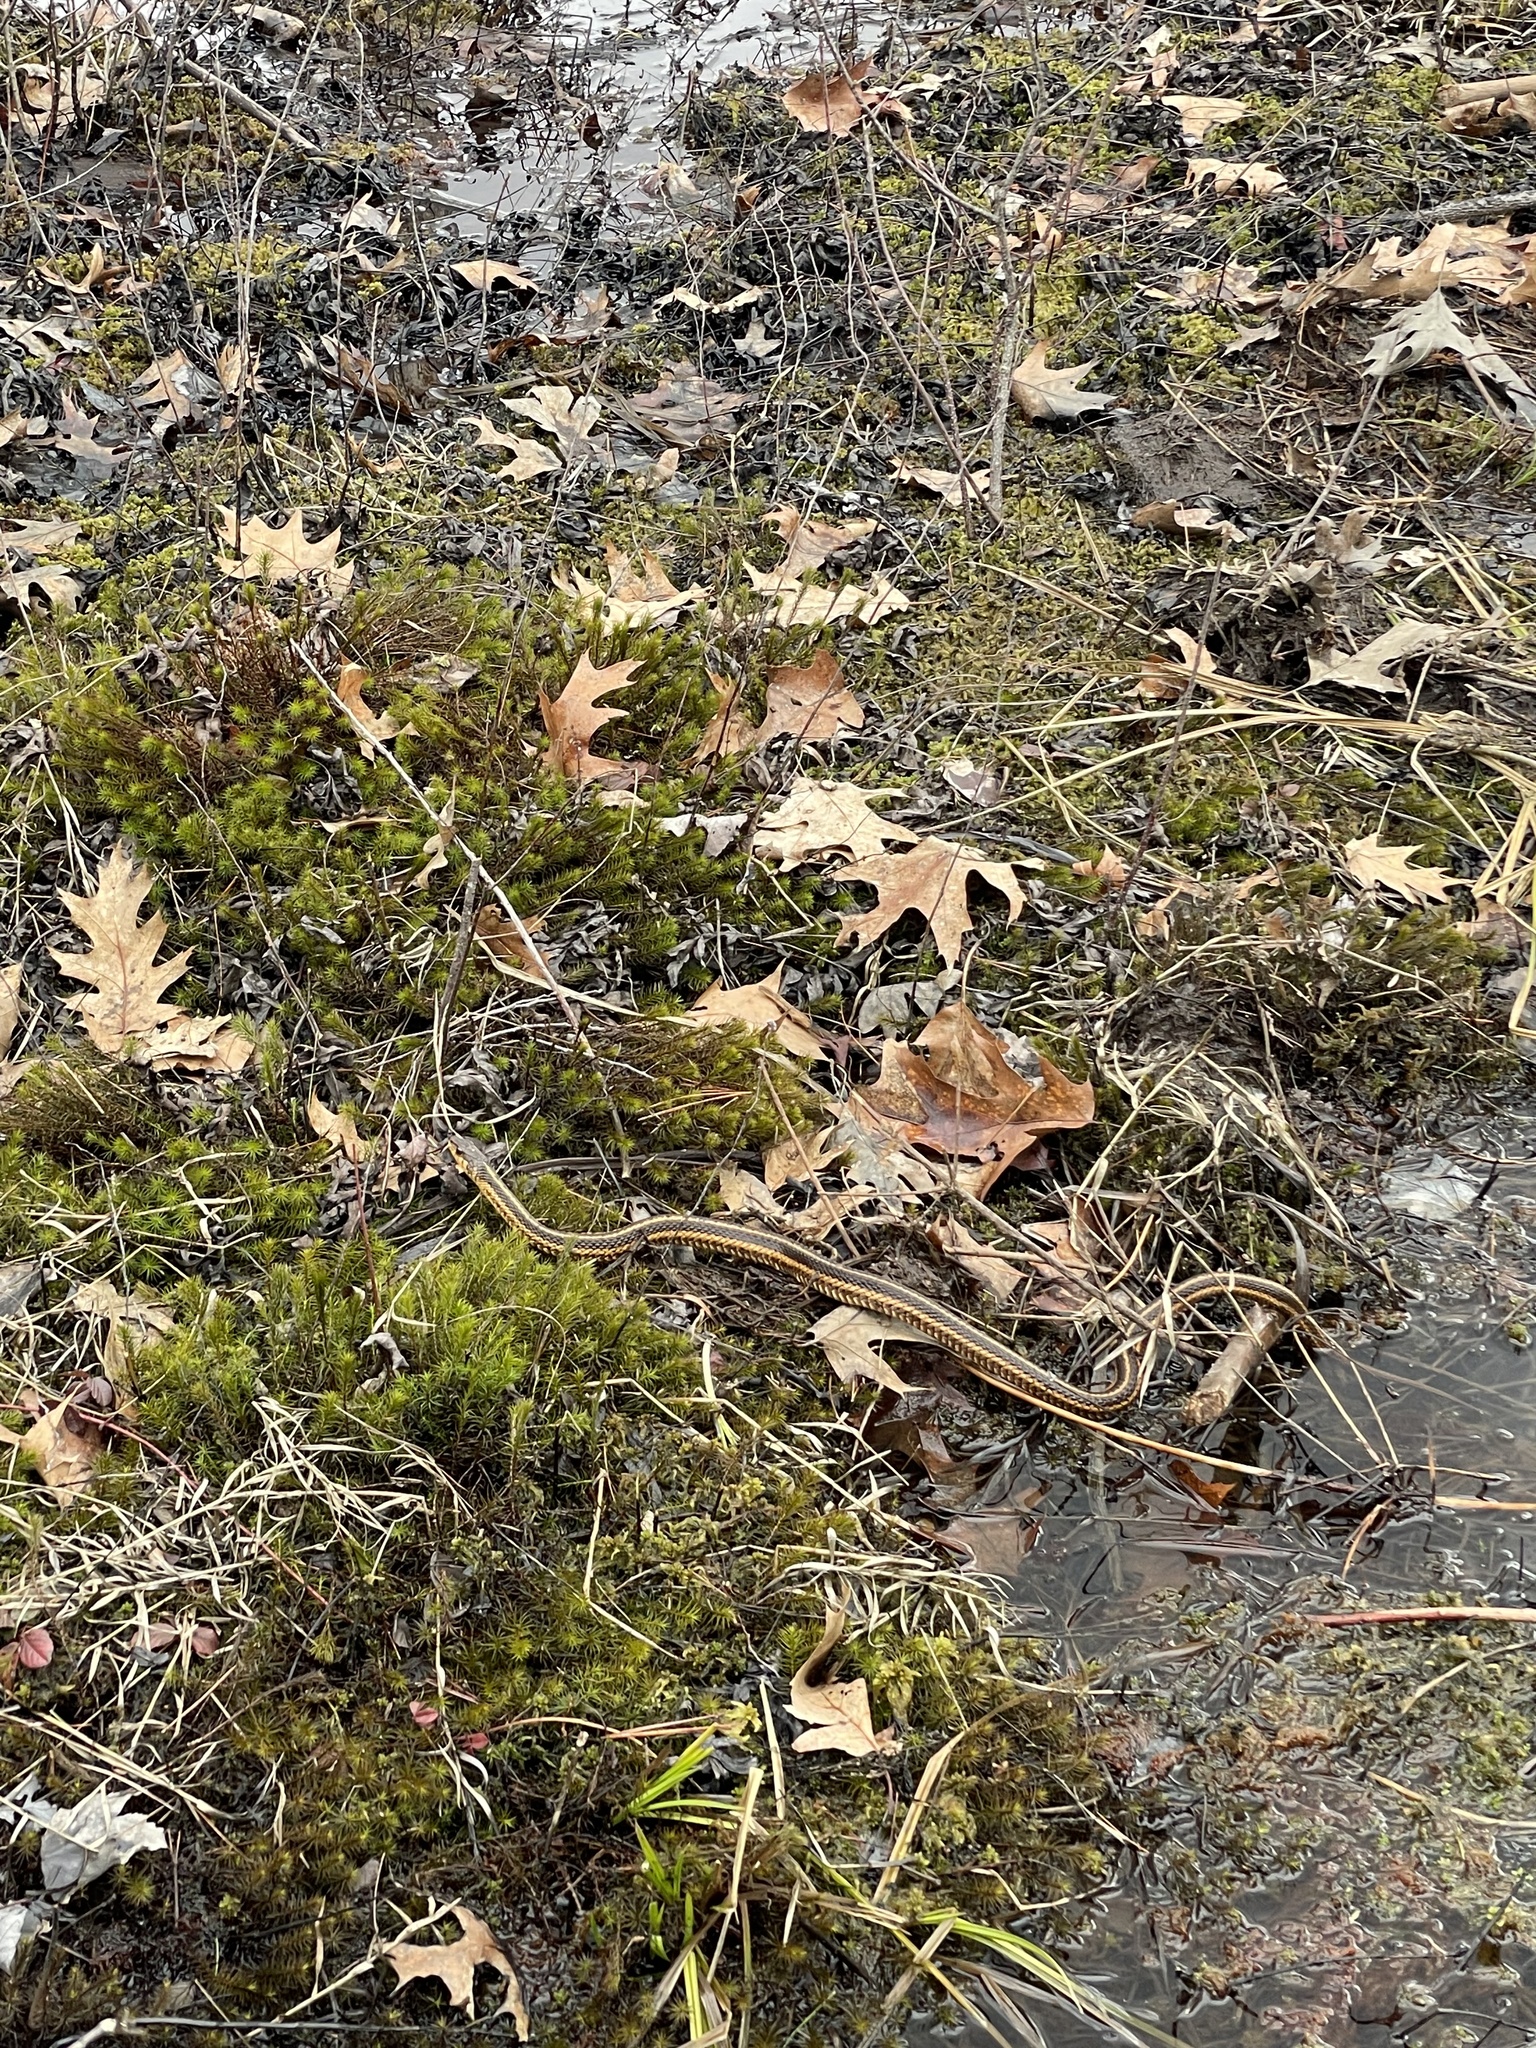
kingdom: Animalia
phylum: Chordata
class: Squamata
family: Colubridae
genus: Thamnophis
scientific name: Thamnophis sirtalis
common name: Common garter snake
